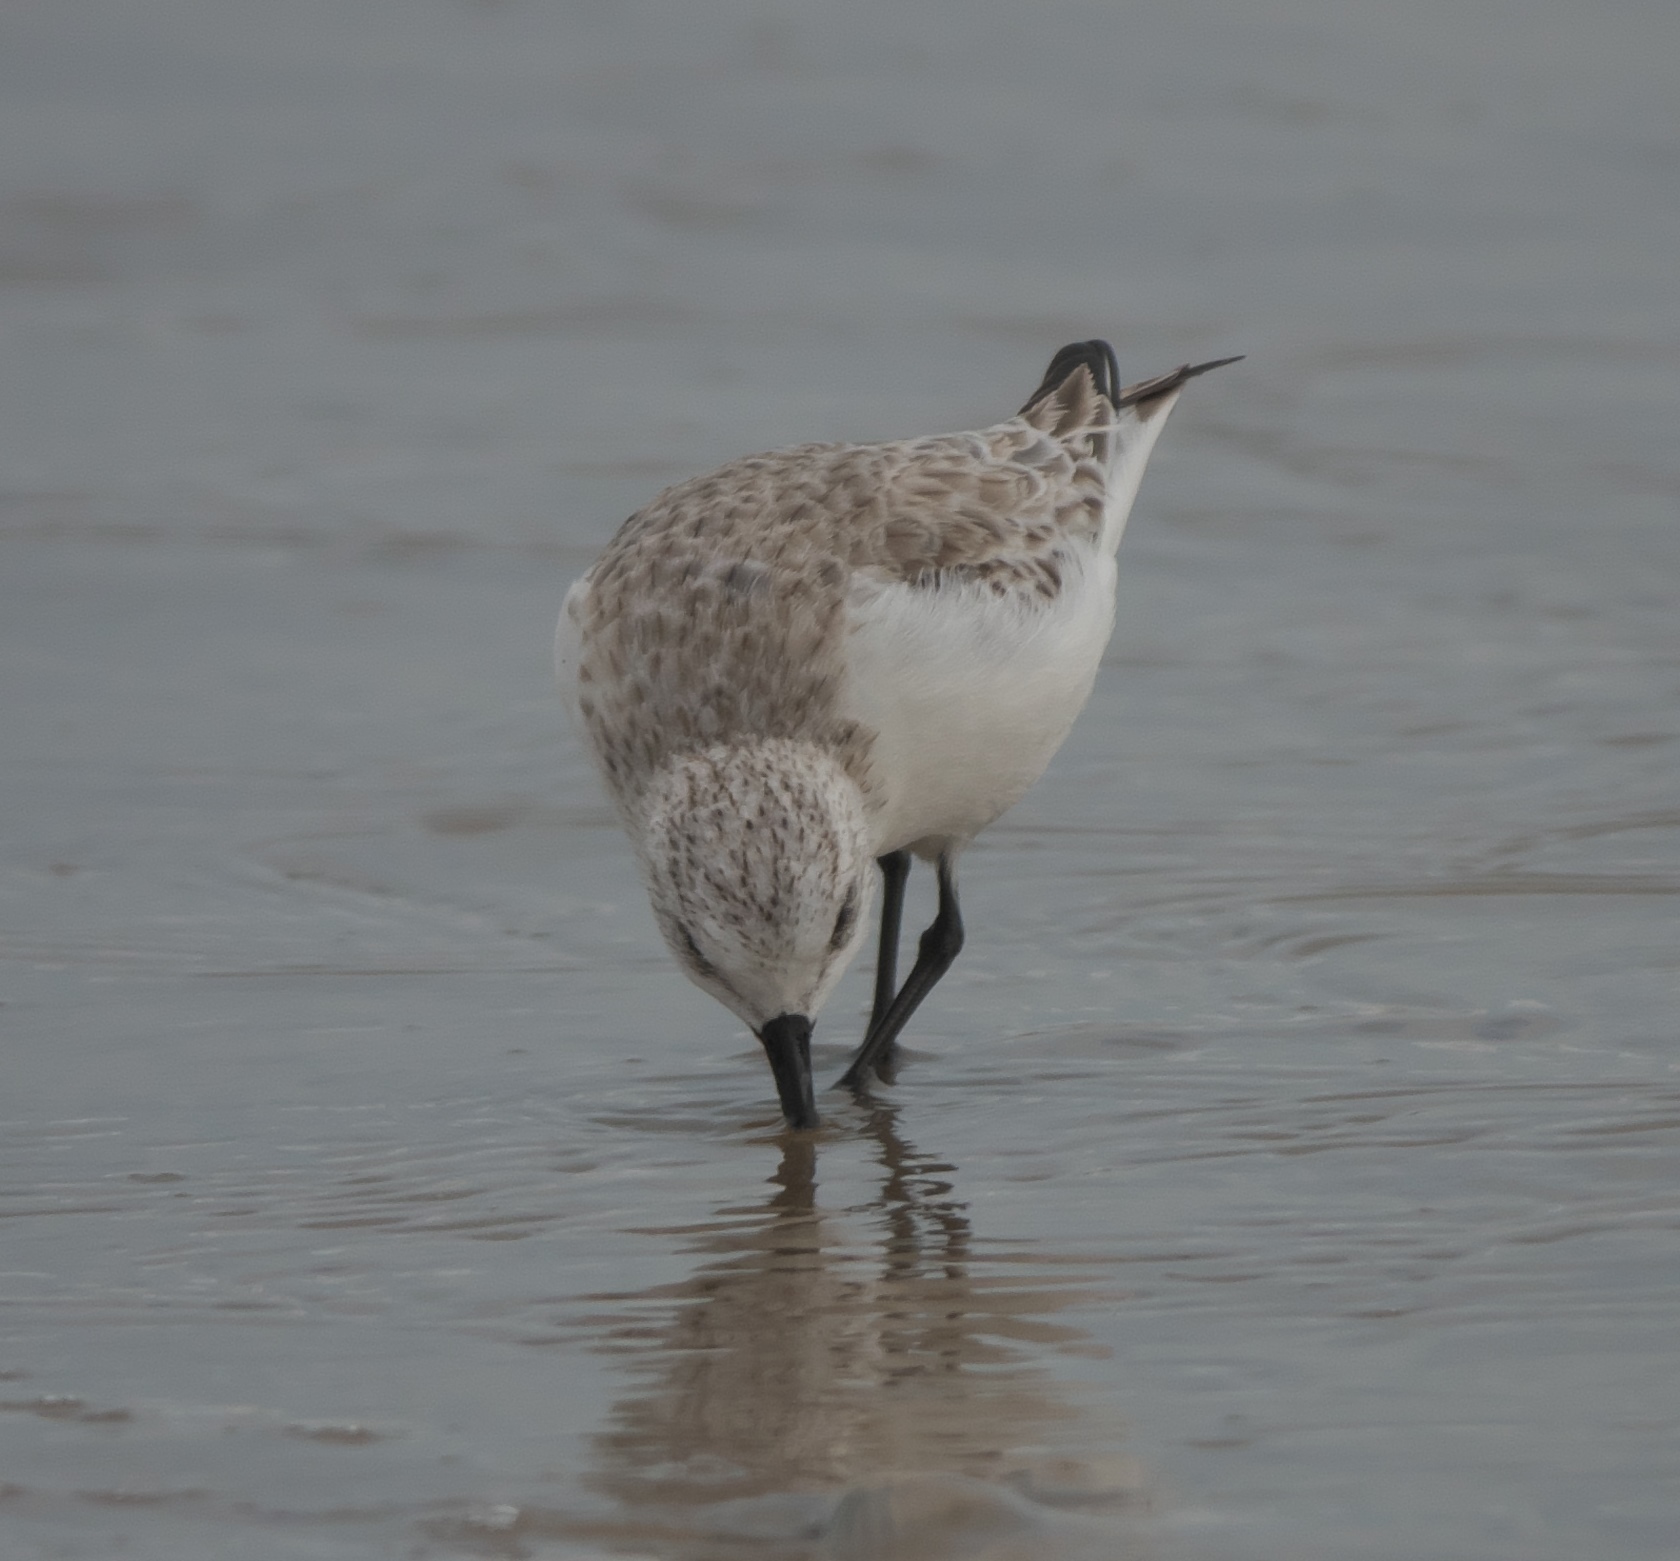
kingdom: Animalia
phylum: Chordata
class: Aves
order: Charadriiformes
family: Scolopacidae
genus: Calidris
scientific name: Calidris alba
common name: Sanderling
